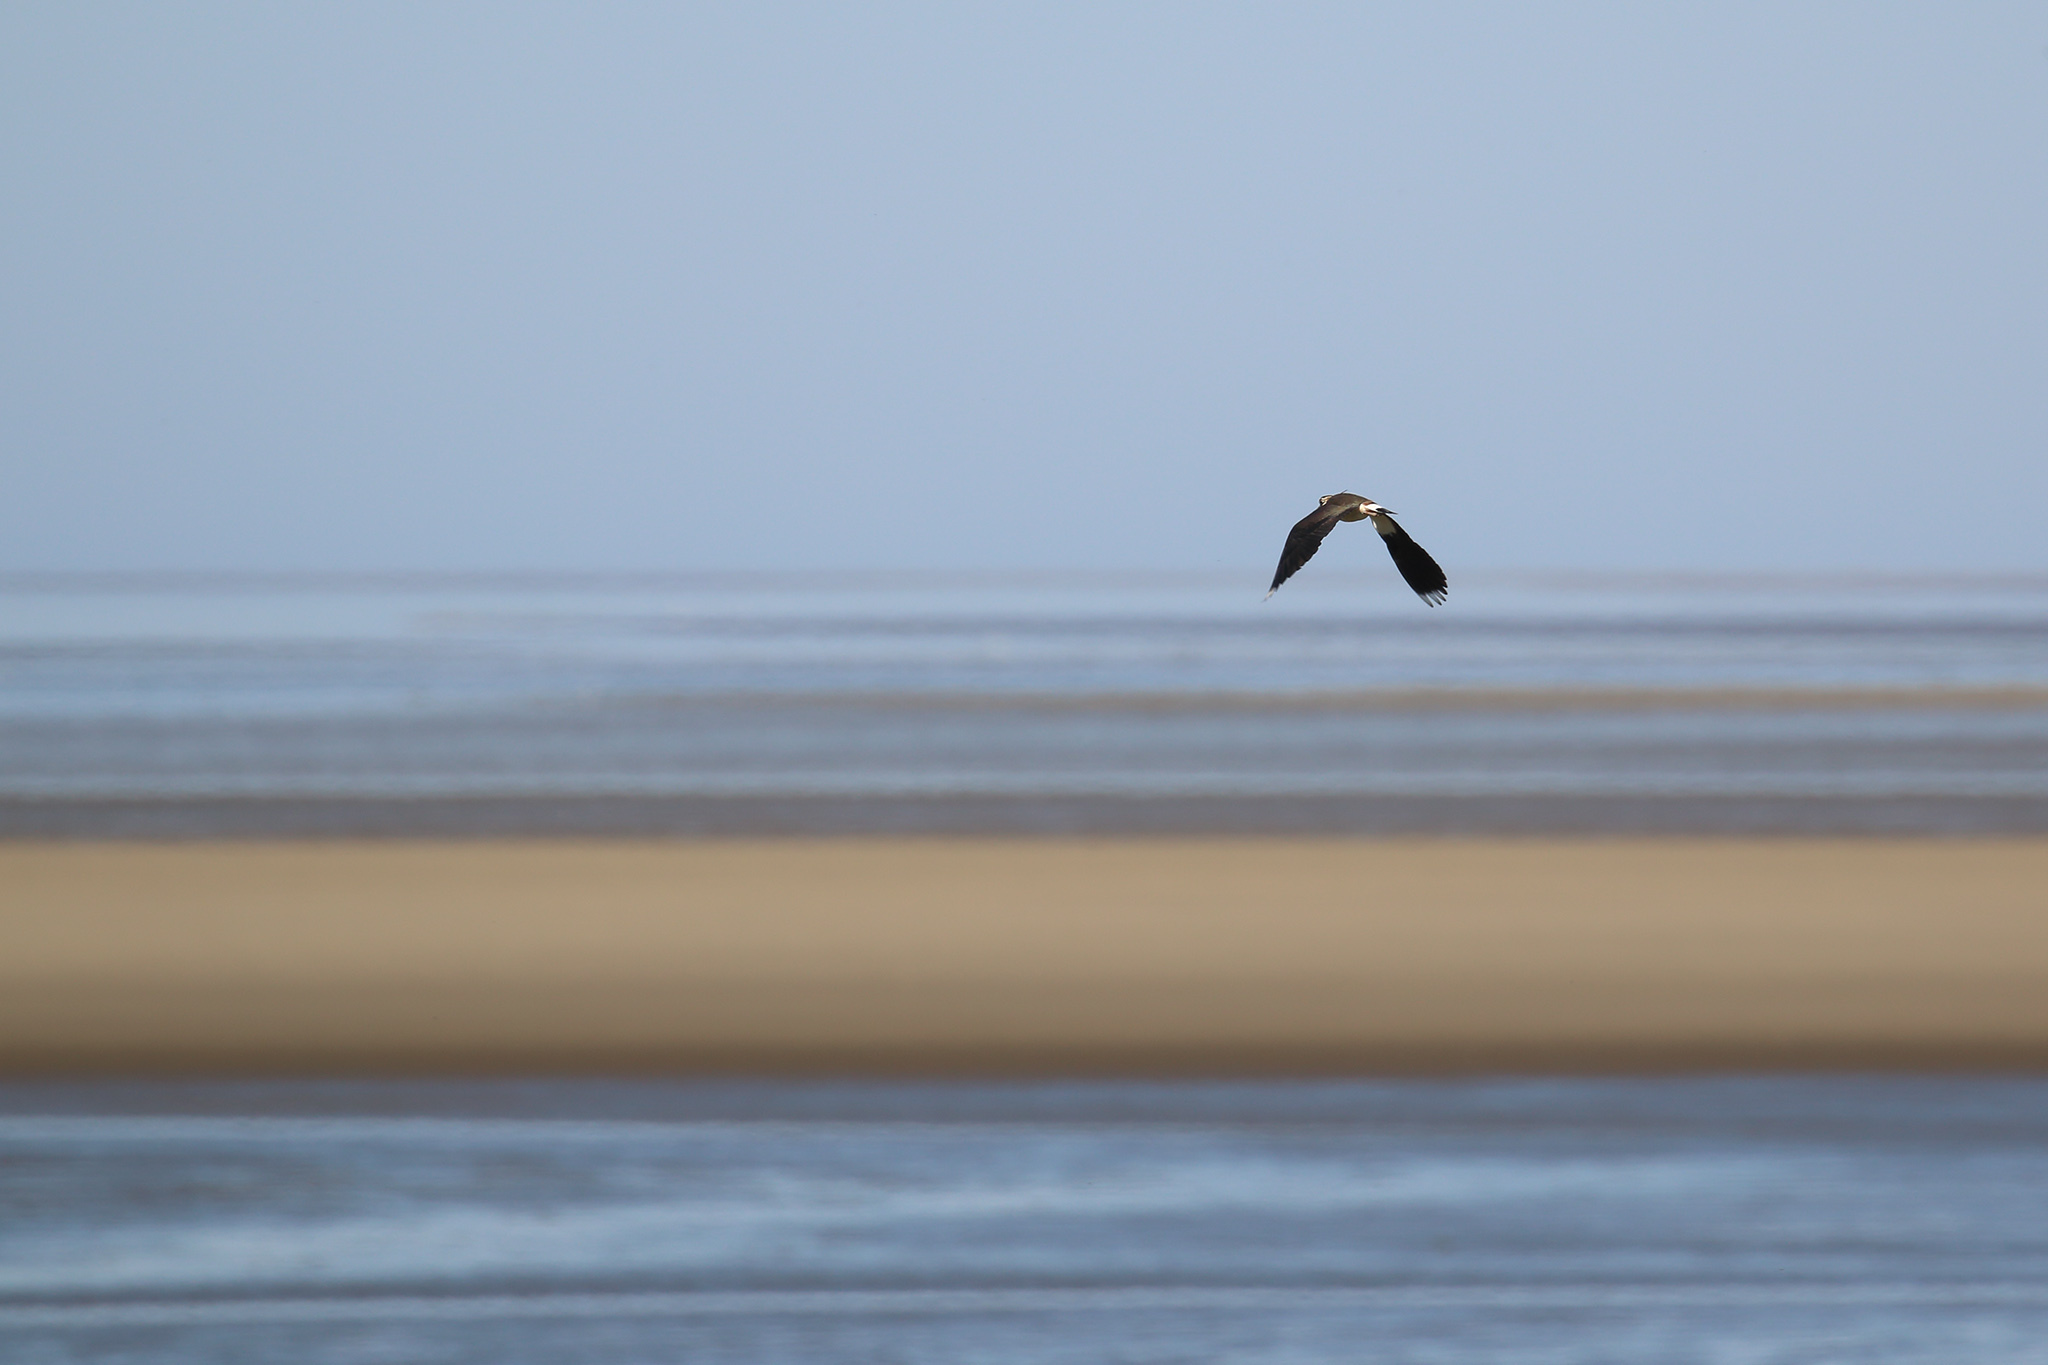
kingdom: Animalia
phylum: Chordata
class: Aves
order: Charadriiformes
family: Charadriidae
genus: Vanellus
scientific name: Vanellus vanellus
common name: Northern lapwing
